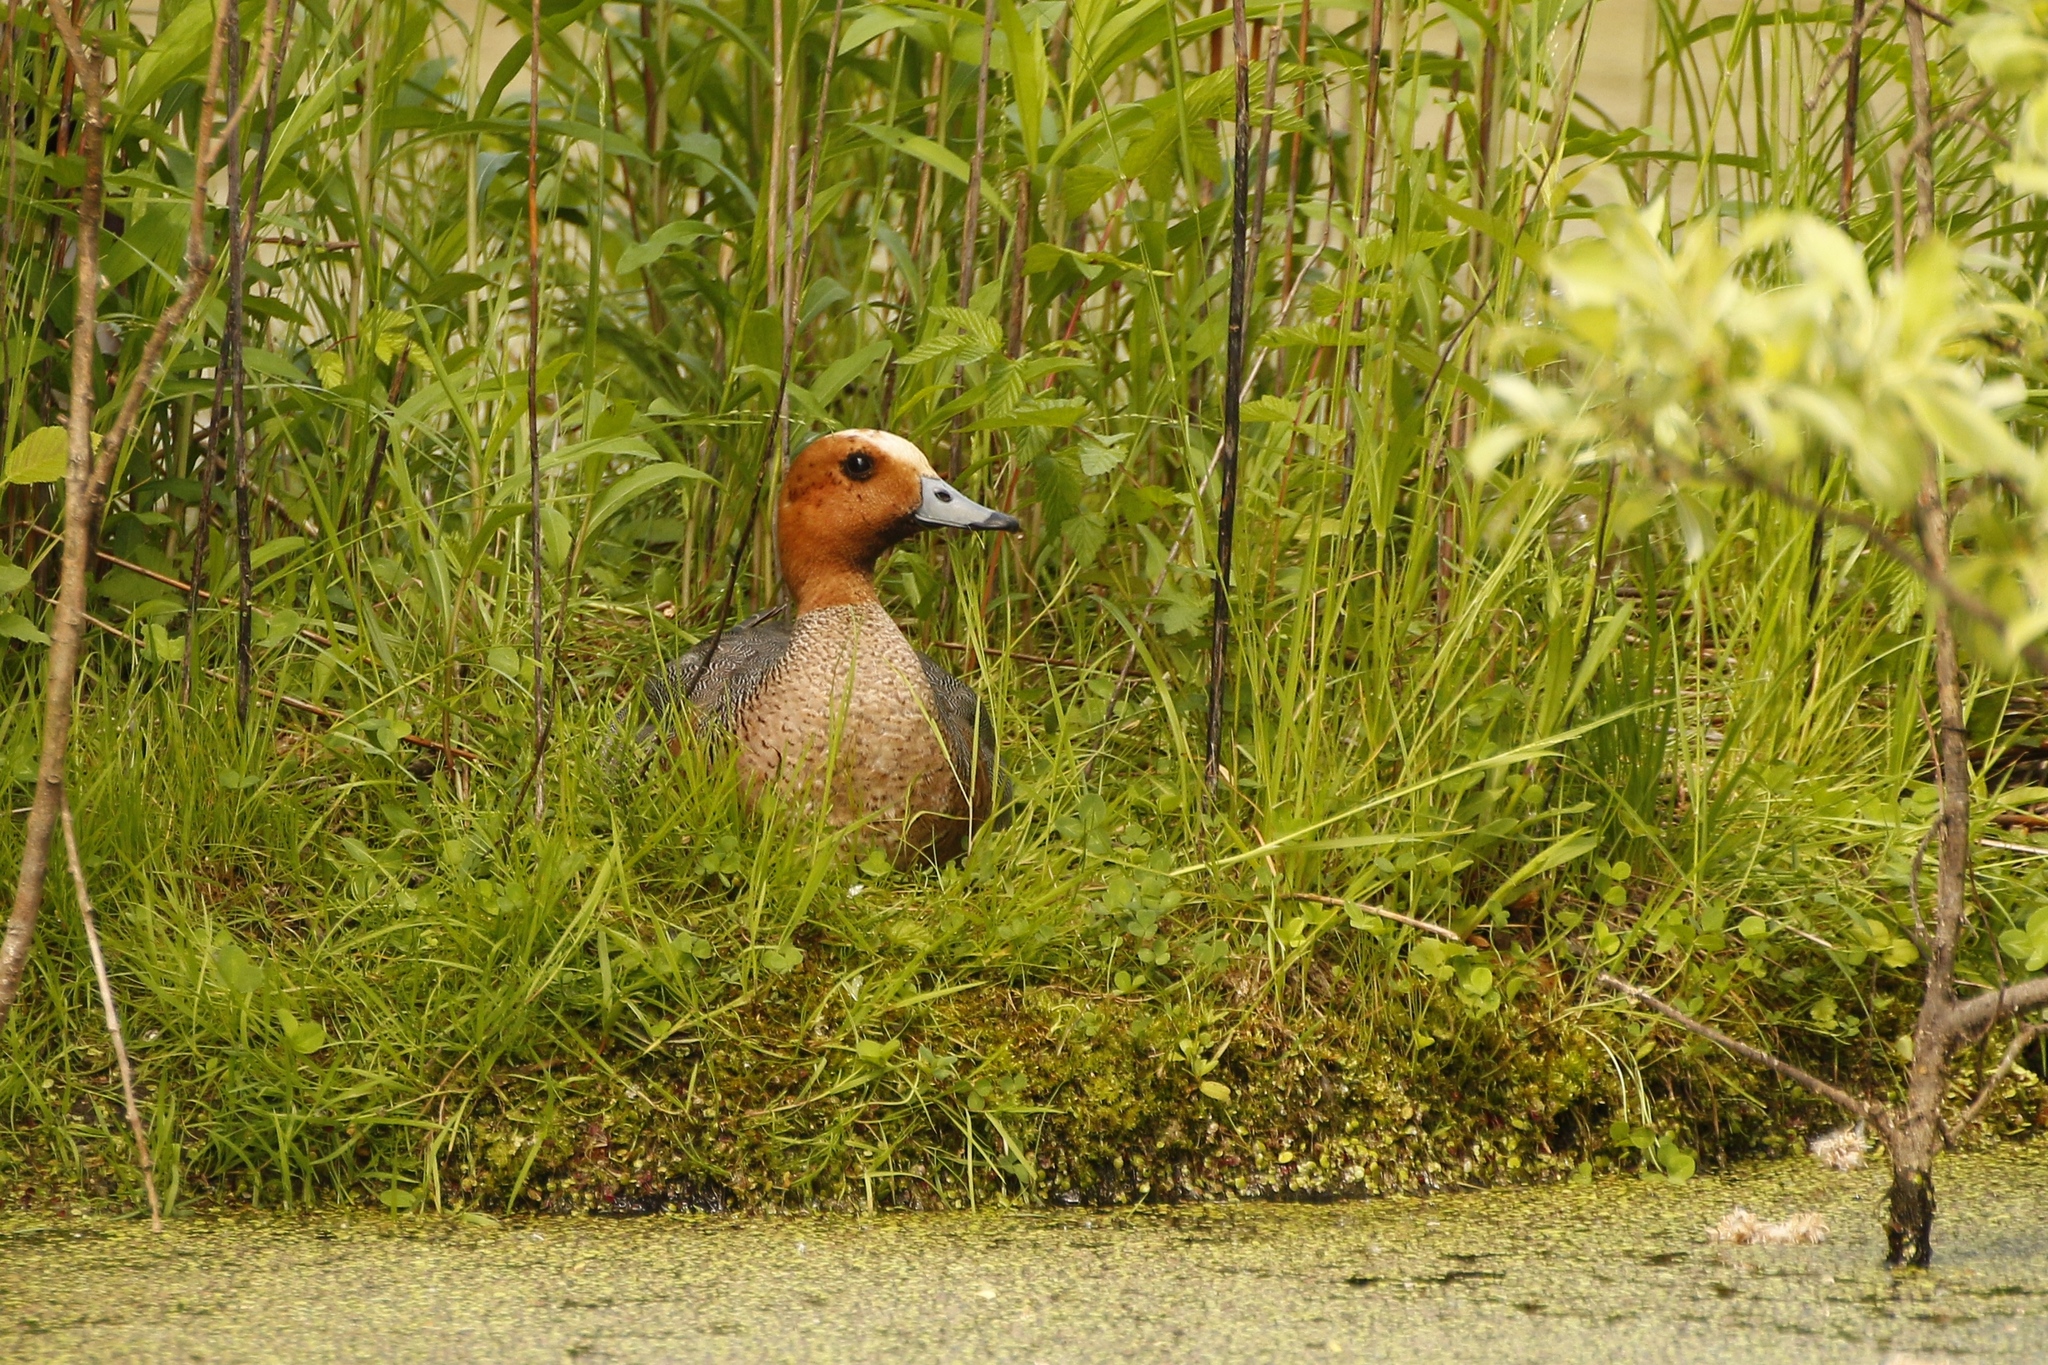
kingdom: Animalia
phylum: Chordata
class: Aves
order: Anseriformes
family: Anatidae
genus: Mareca
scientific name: Mareca penelope
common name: Eurasian wigeon
